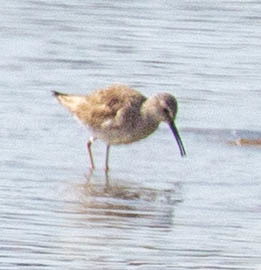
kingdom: Animalia
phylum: Chordata
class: Aves
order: Charadriiformes
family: Scolopacidae
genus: Calidris
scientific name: Calidris himantopus
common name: Stilt sandpiper
